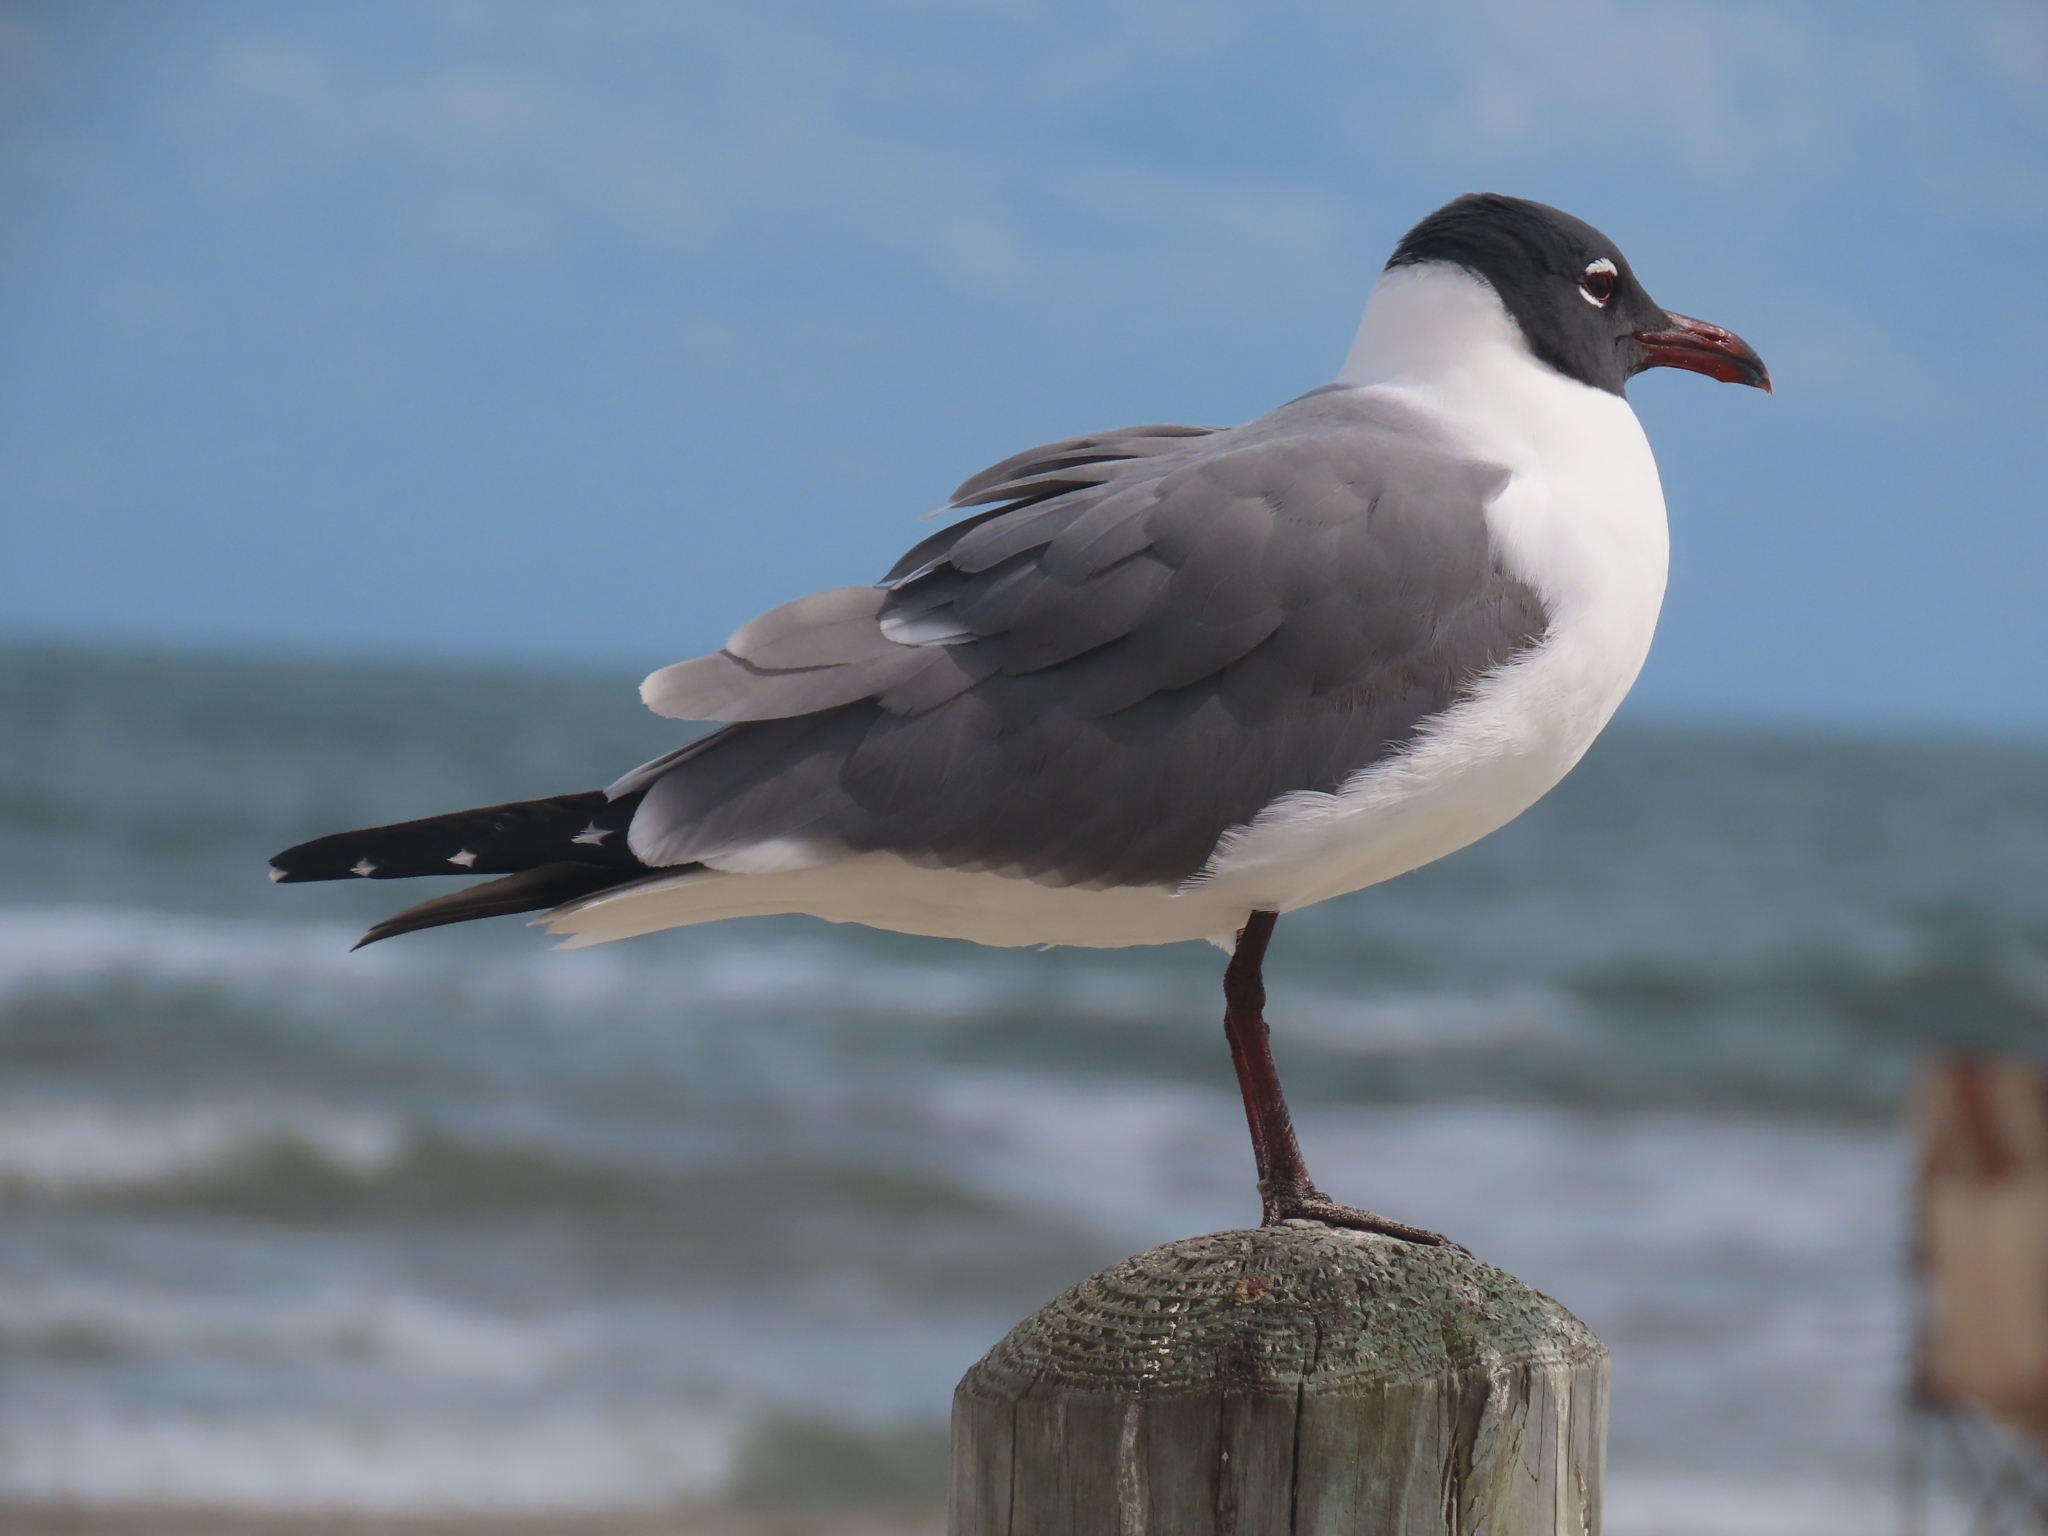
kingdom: Animalia
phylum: Chordata
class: Aves
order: Charadriiformes
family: Laridae
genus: Leucophaeus
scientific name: Leucophaeus atricilla
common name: Laughing gull
